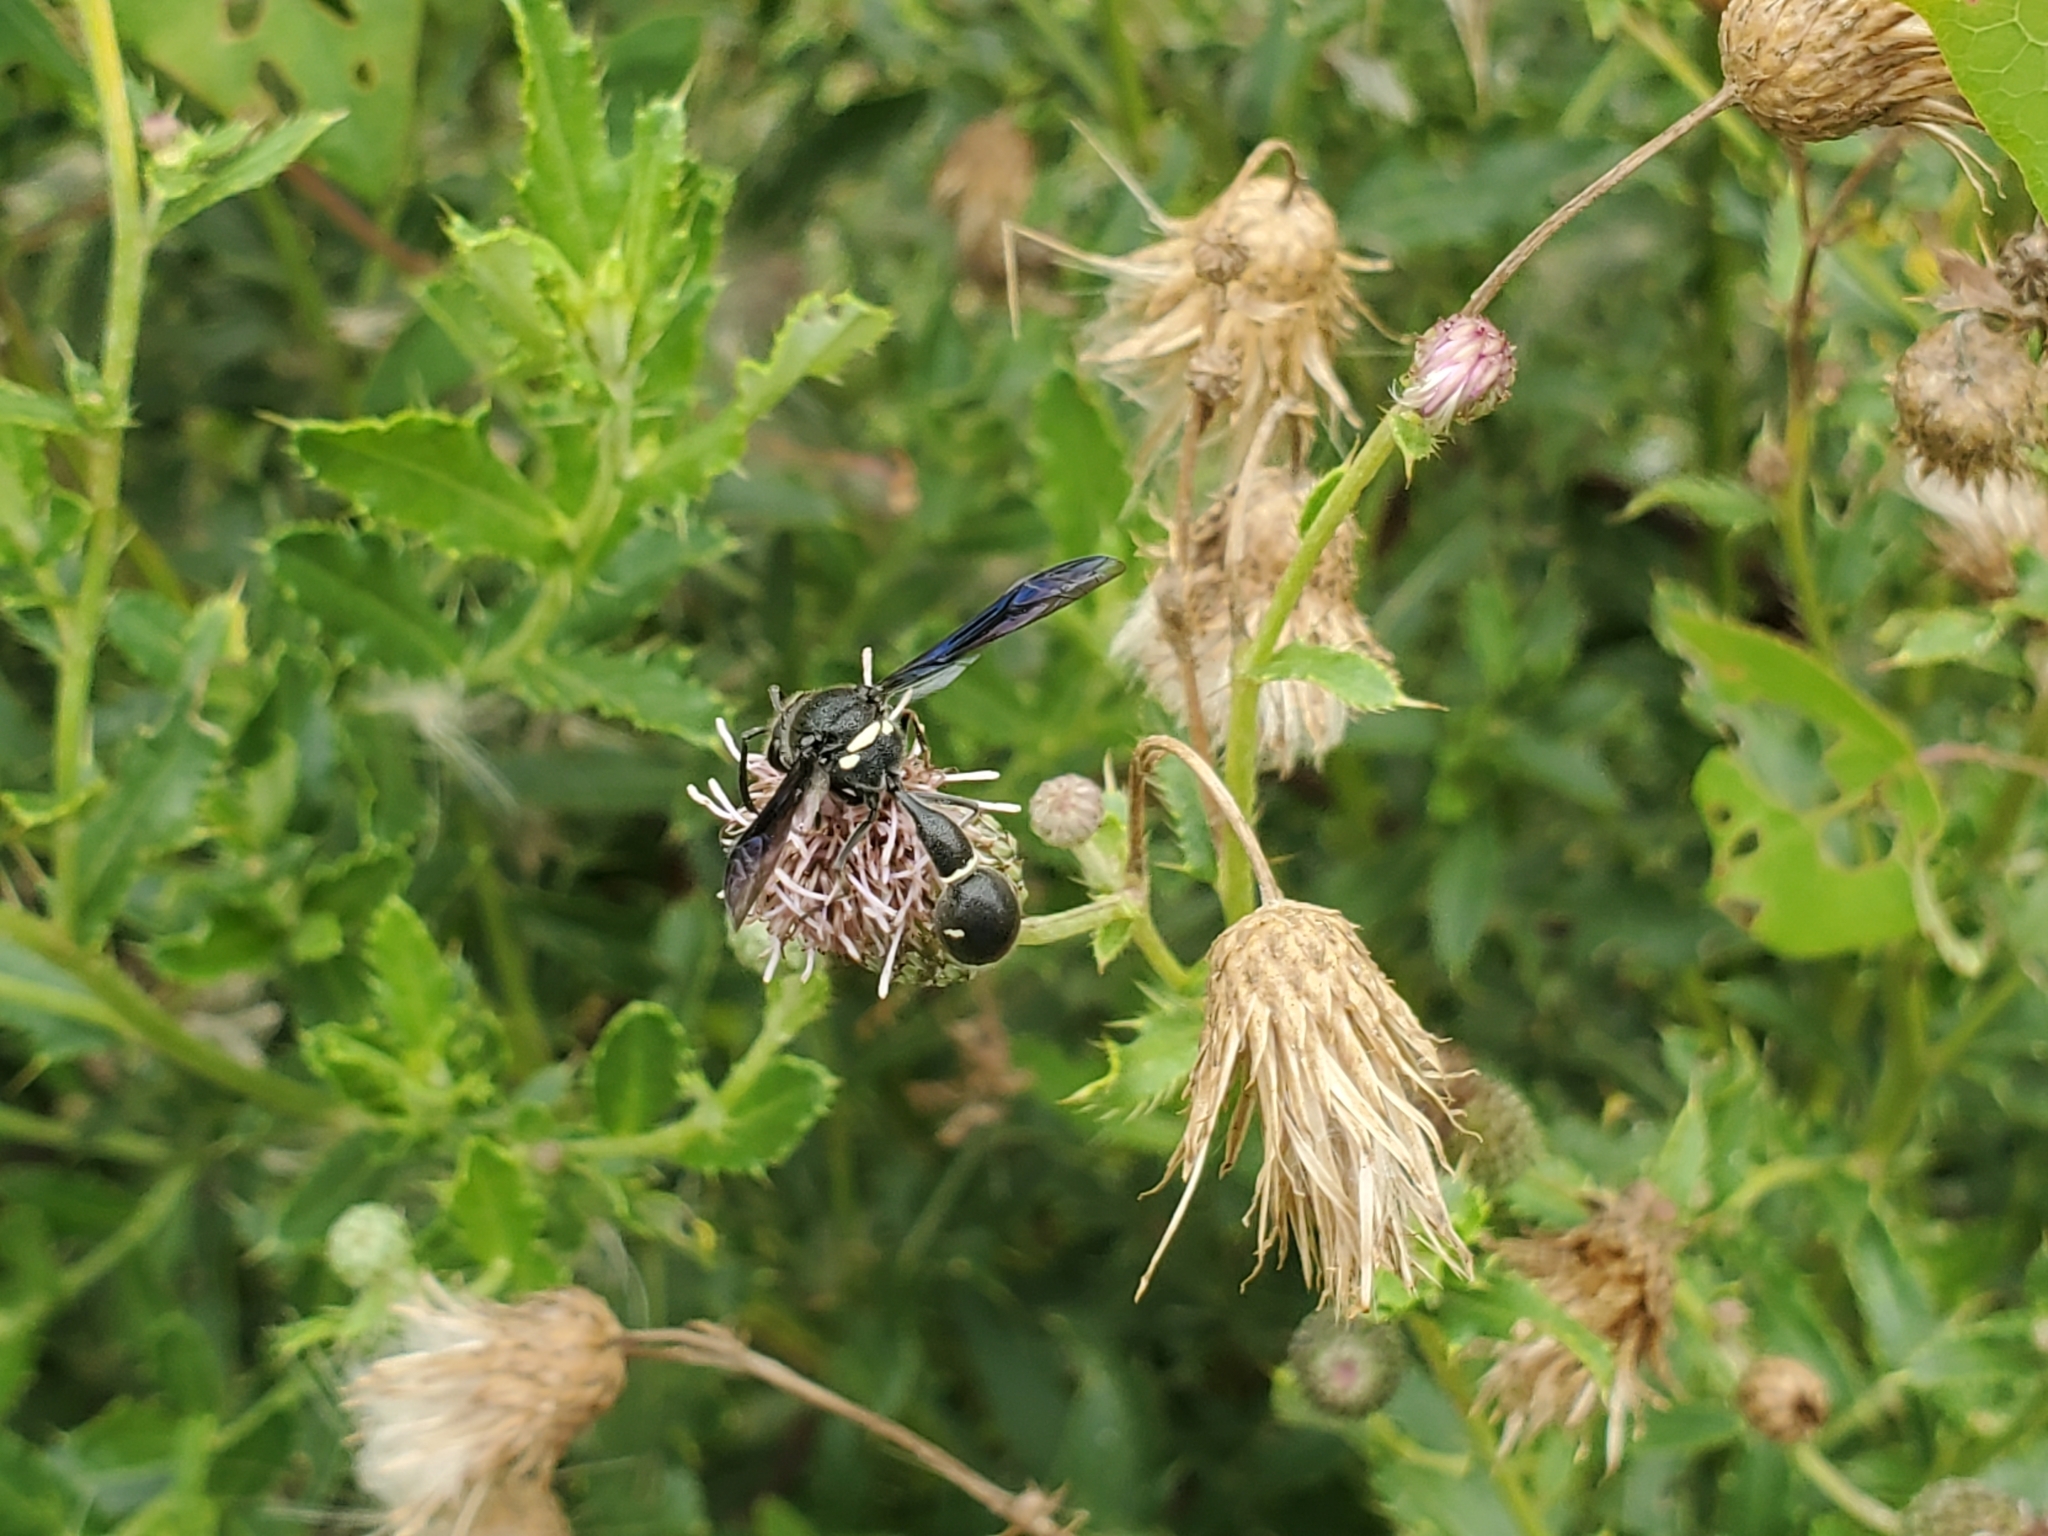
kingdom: Animalia
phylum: Arthropoda
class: Insecta
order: Hymenoptera
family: Vespidae
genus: Eumenes
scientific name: Eumenes fraternus
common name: Fraternal potter wasp
